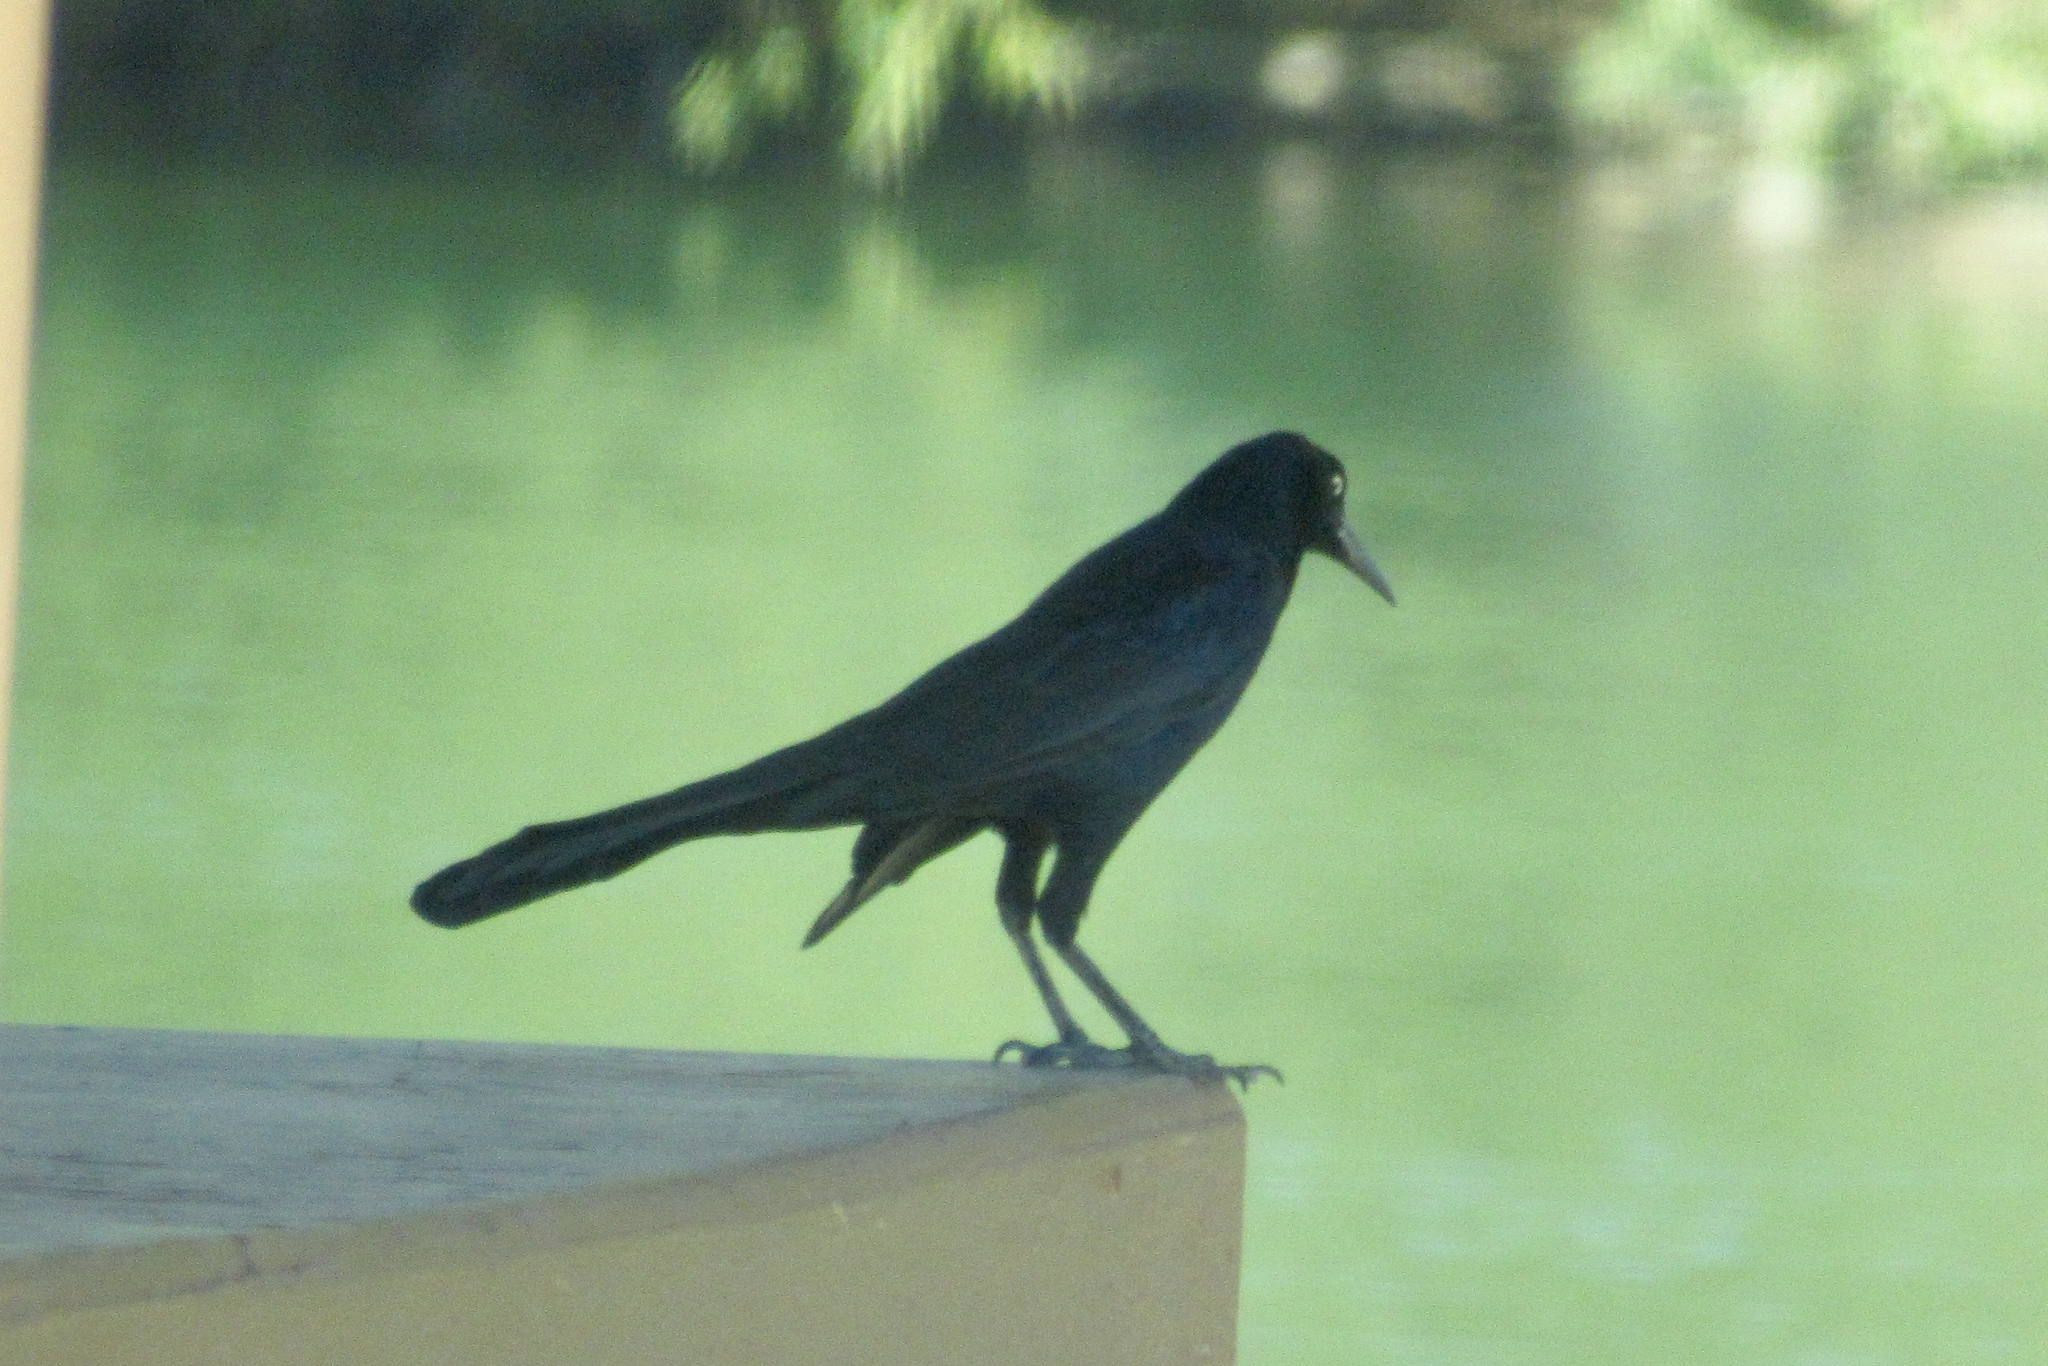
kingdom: Animalia
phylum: Chordata
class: Aves
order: Passeriformes
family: Icteridae
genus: Quiscalus
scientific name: Quiscalus mexicanus
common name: Great-tailed grackle
